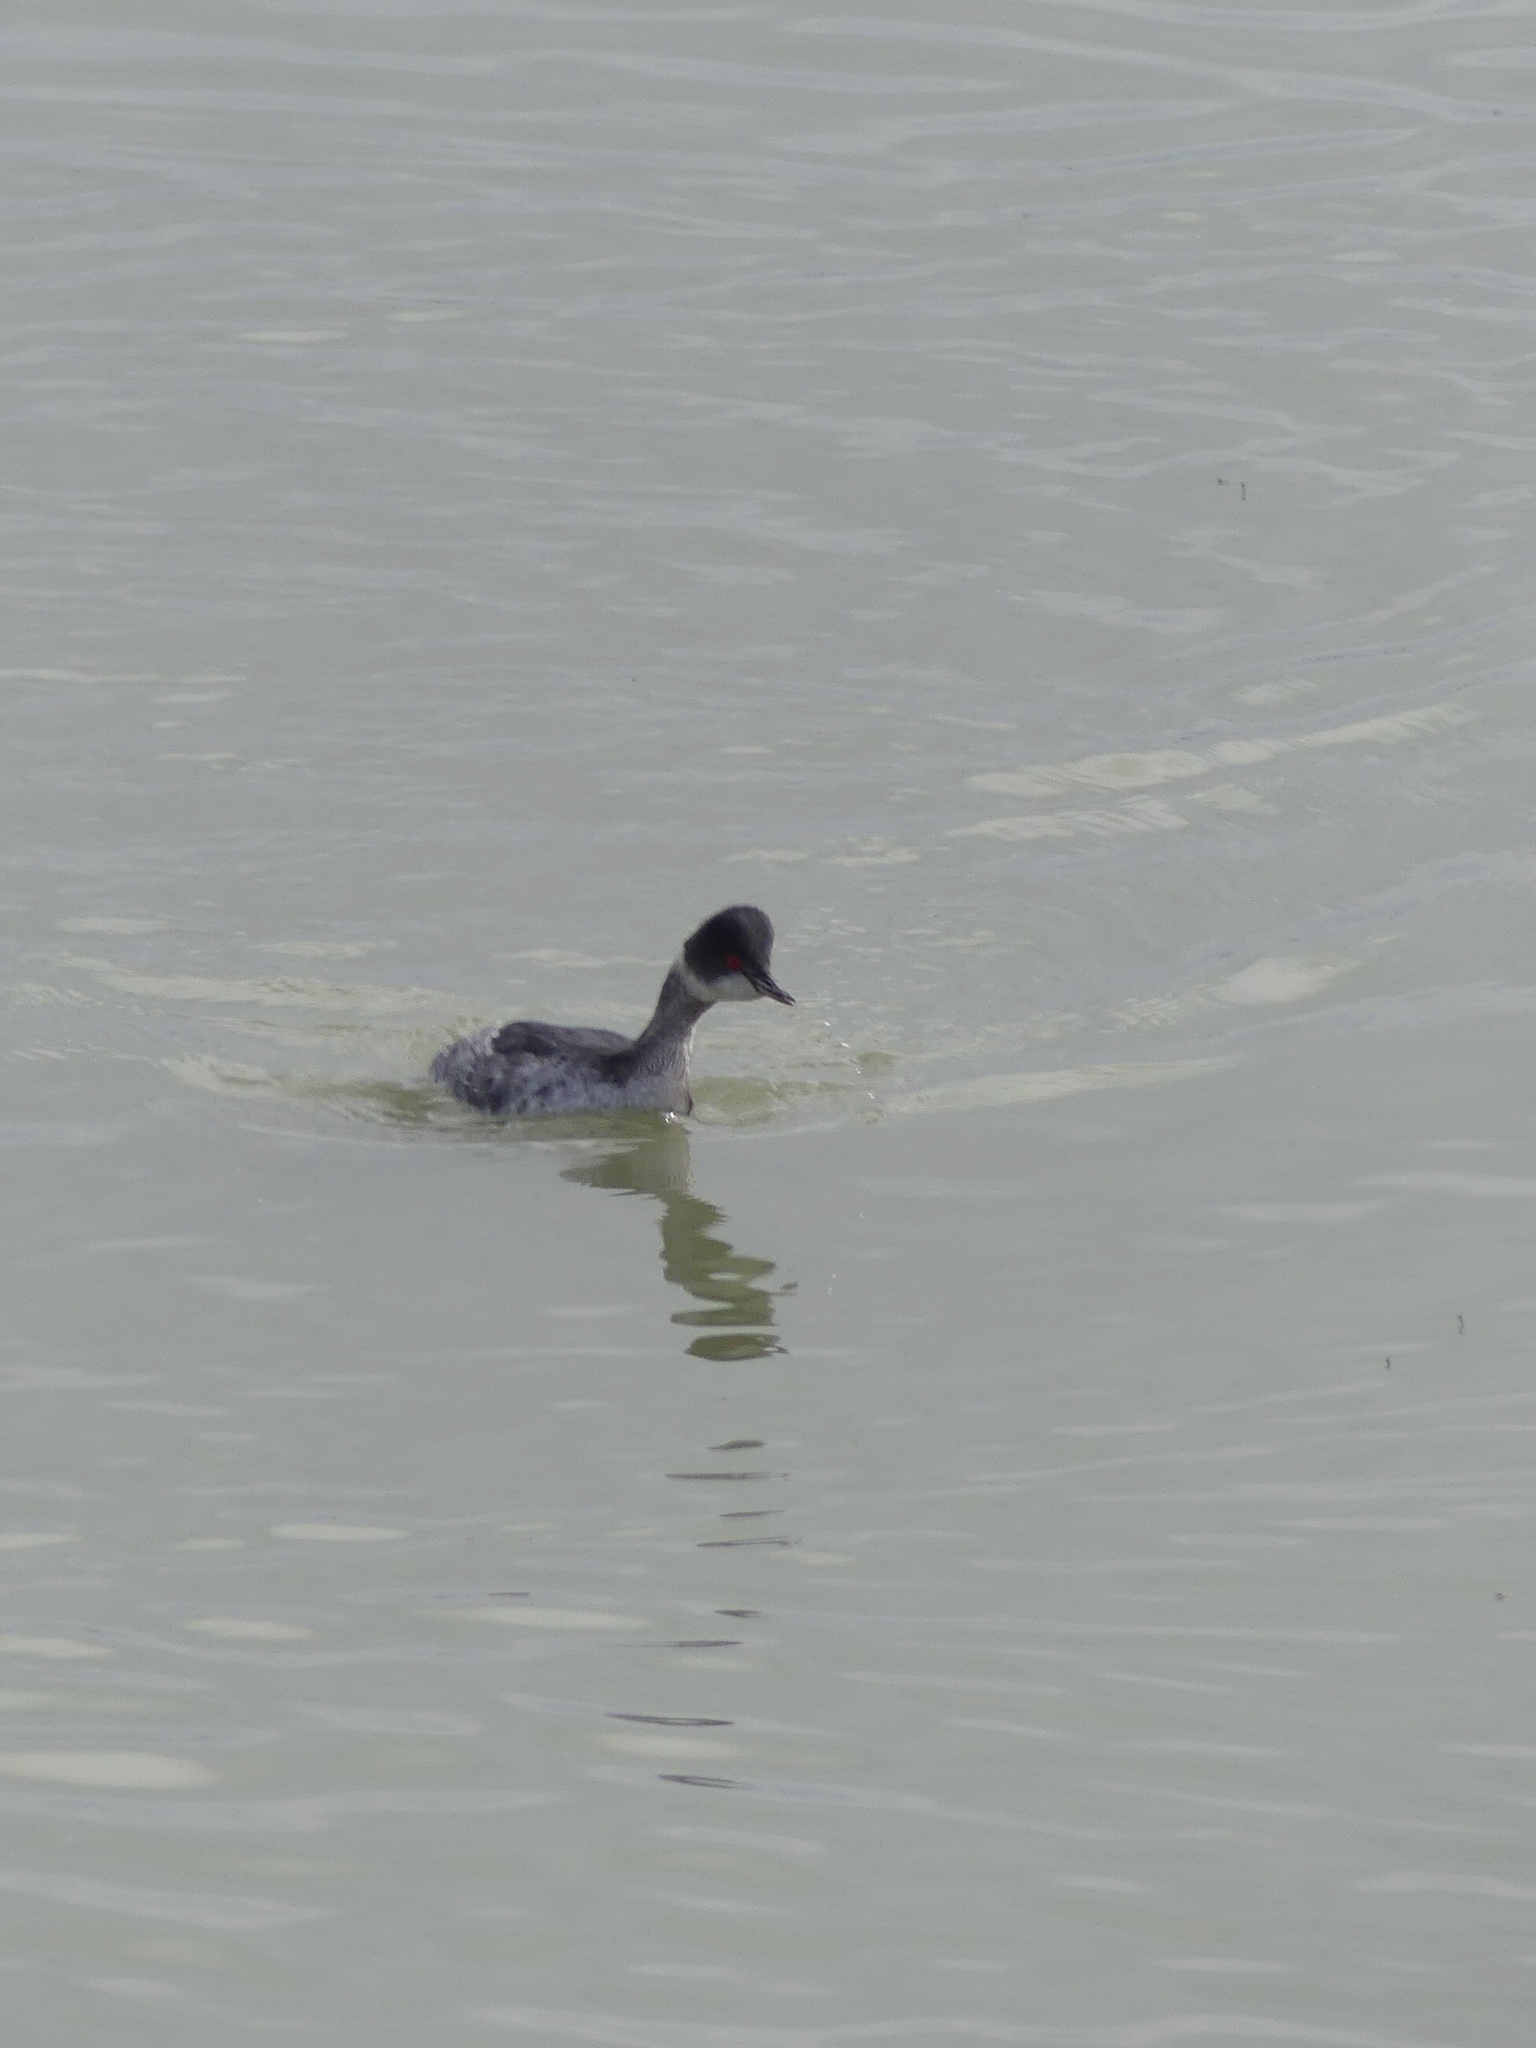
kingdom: Animalia
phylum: Chordata
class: Aves
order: Podicipediformes
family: Podicipedidae
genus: Podiceps
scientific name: Podiceps nigricollis
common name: Black-necked grebe
